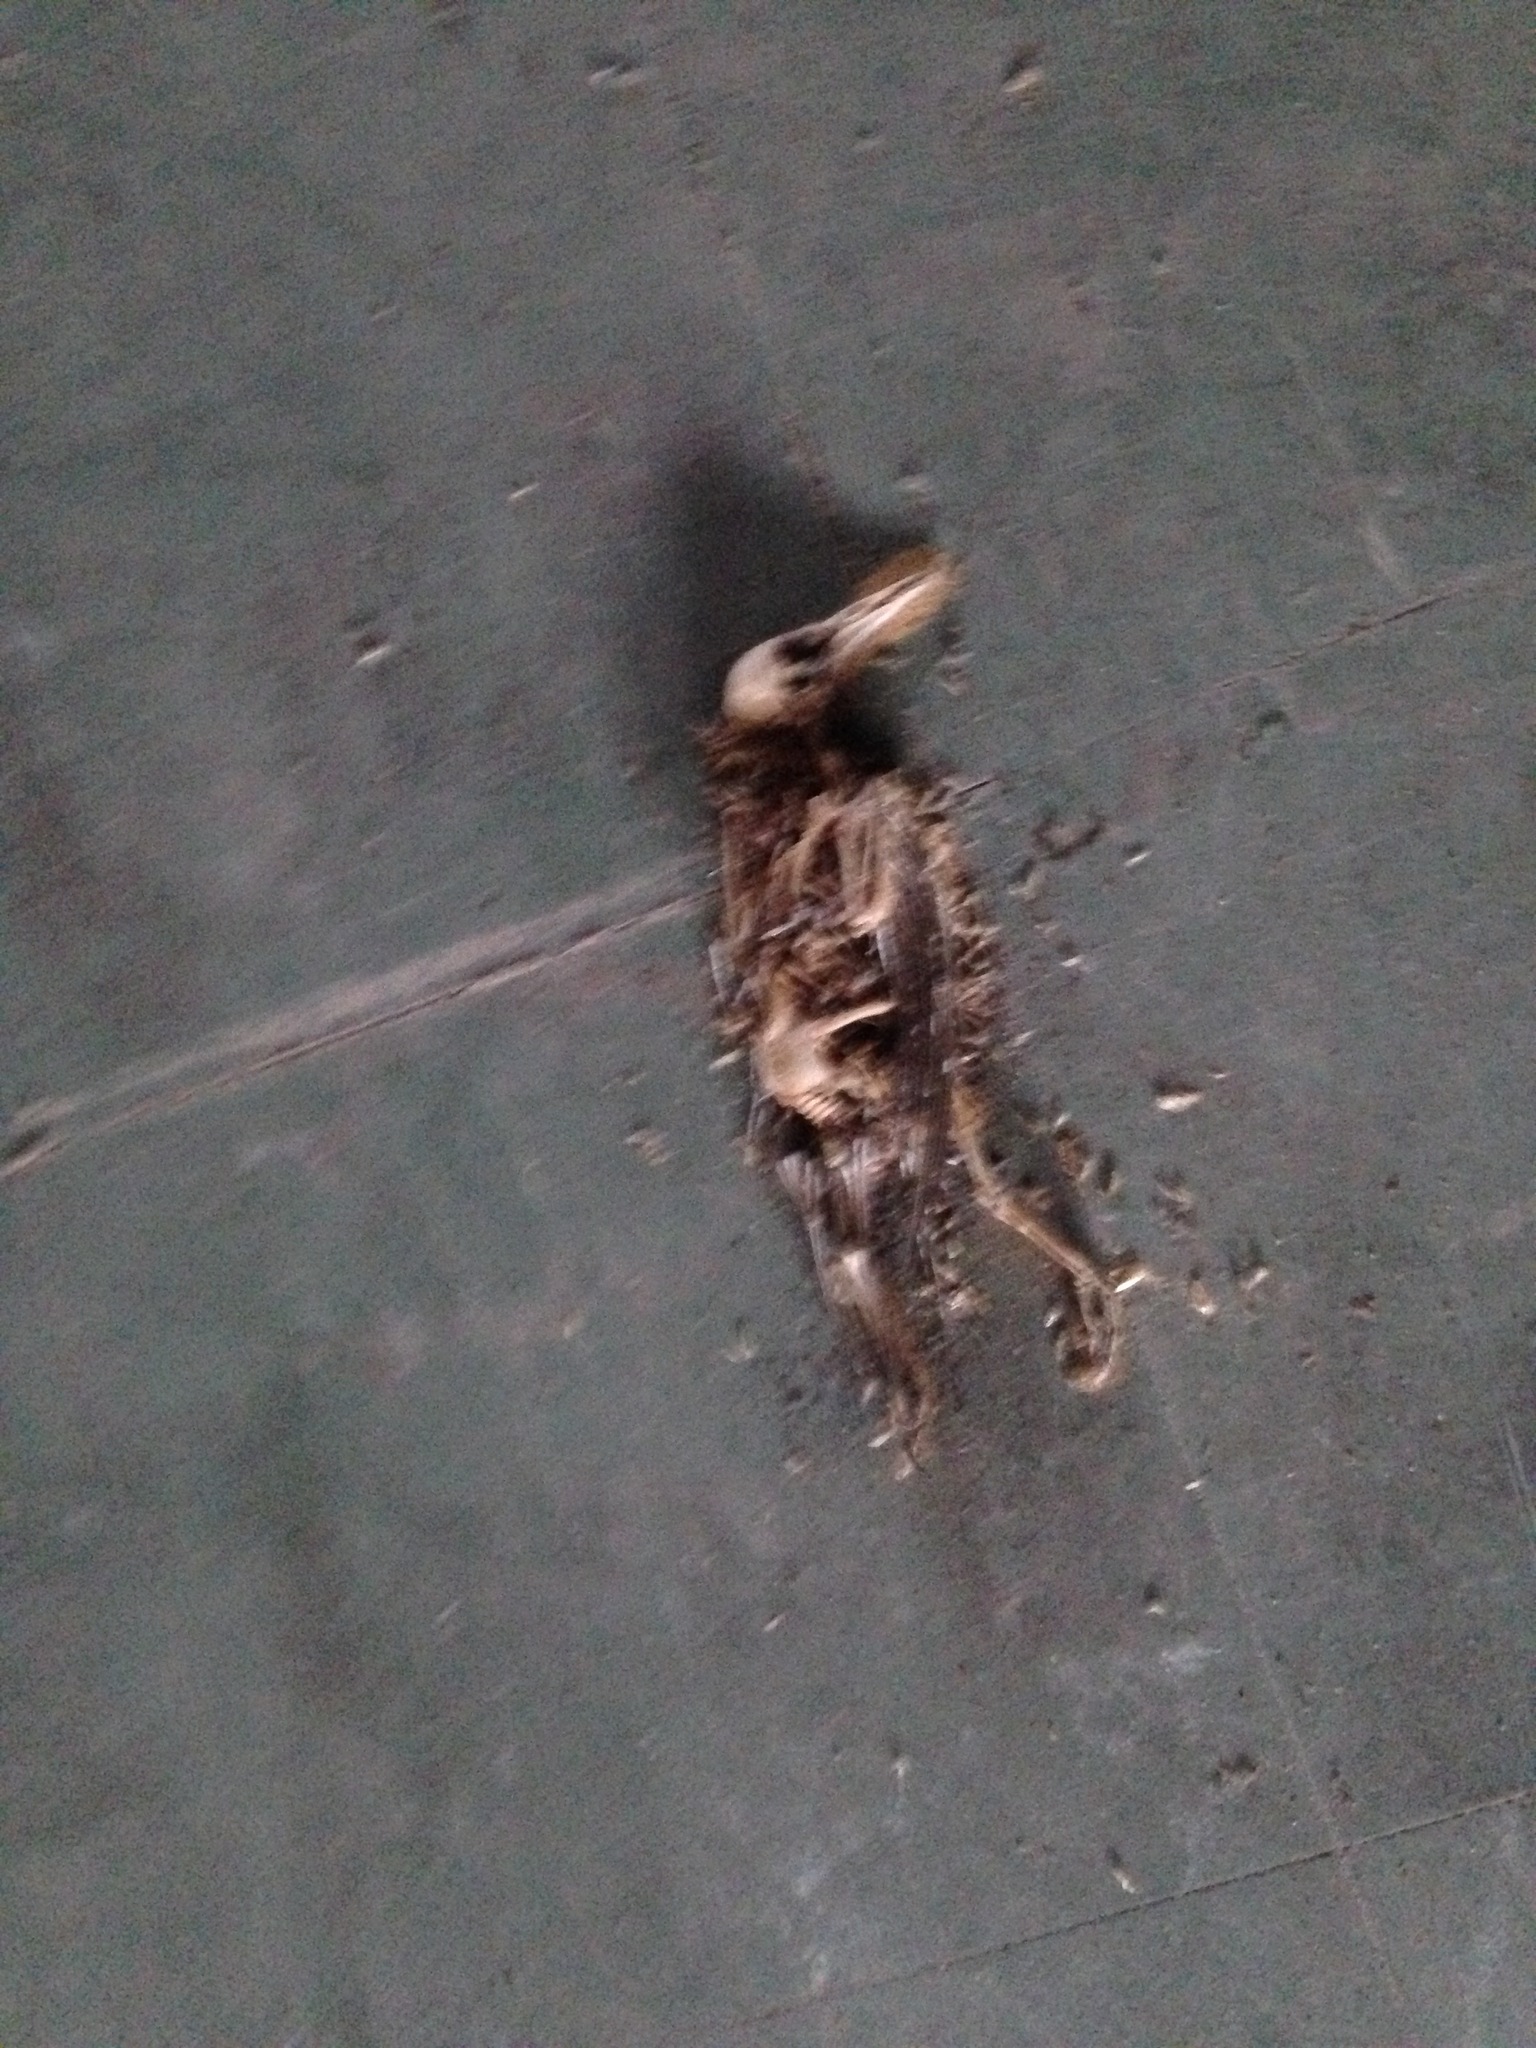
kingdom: Animalia
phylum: Chordata
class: Aves
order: Passeriformes
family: Sturnidae
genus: Sturnus
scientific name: Sturnus vulgaris
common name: Common starling
